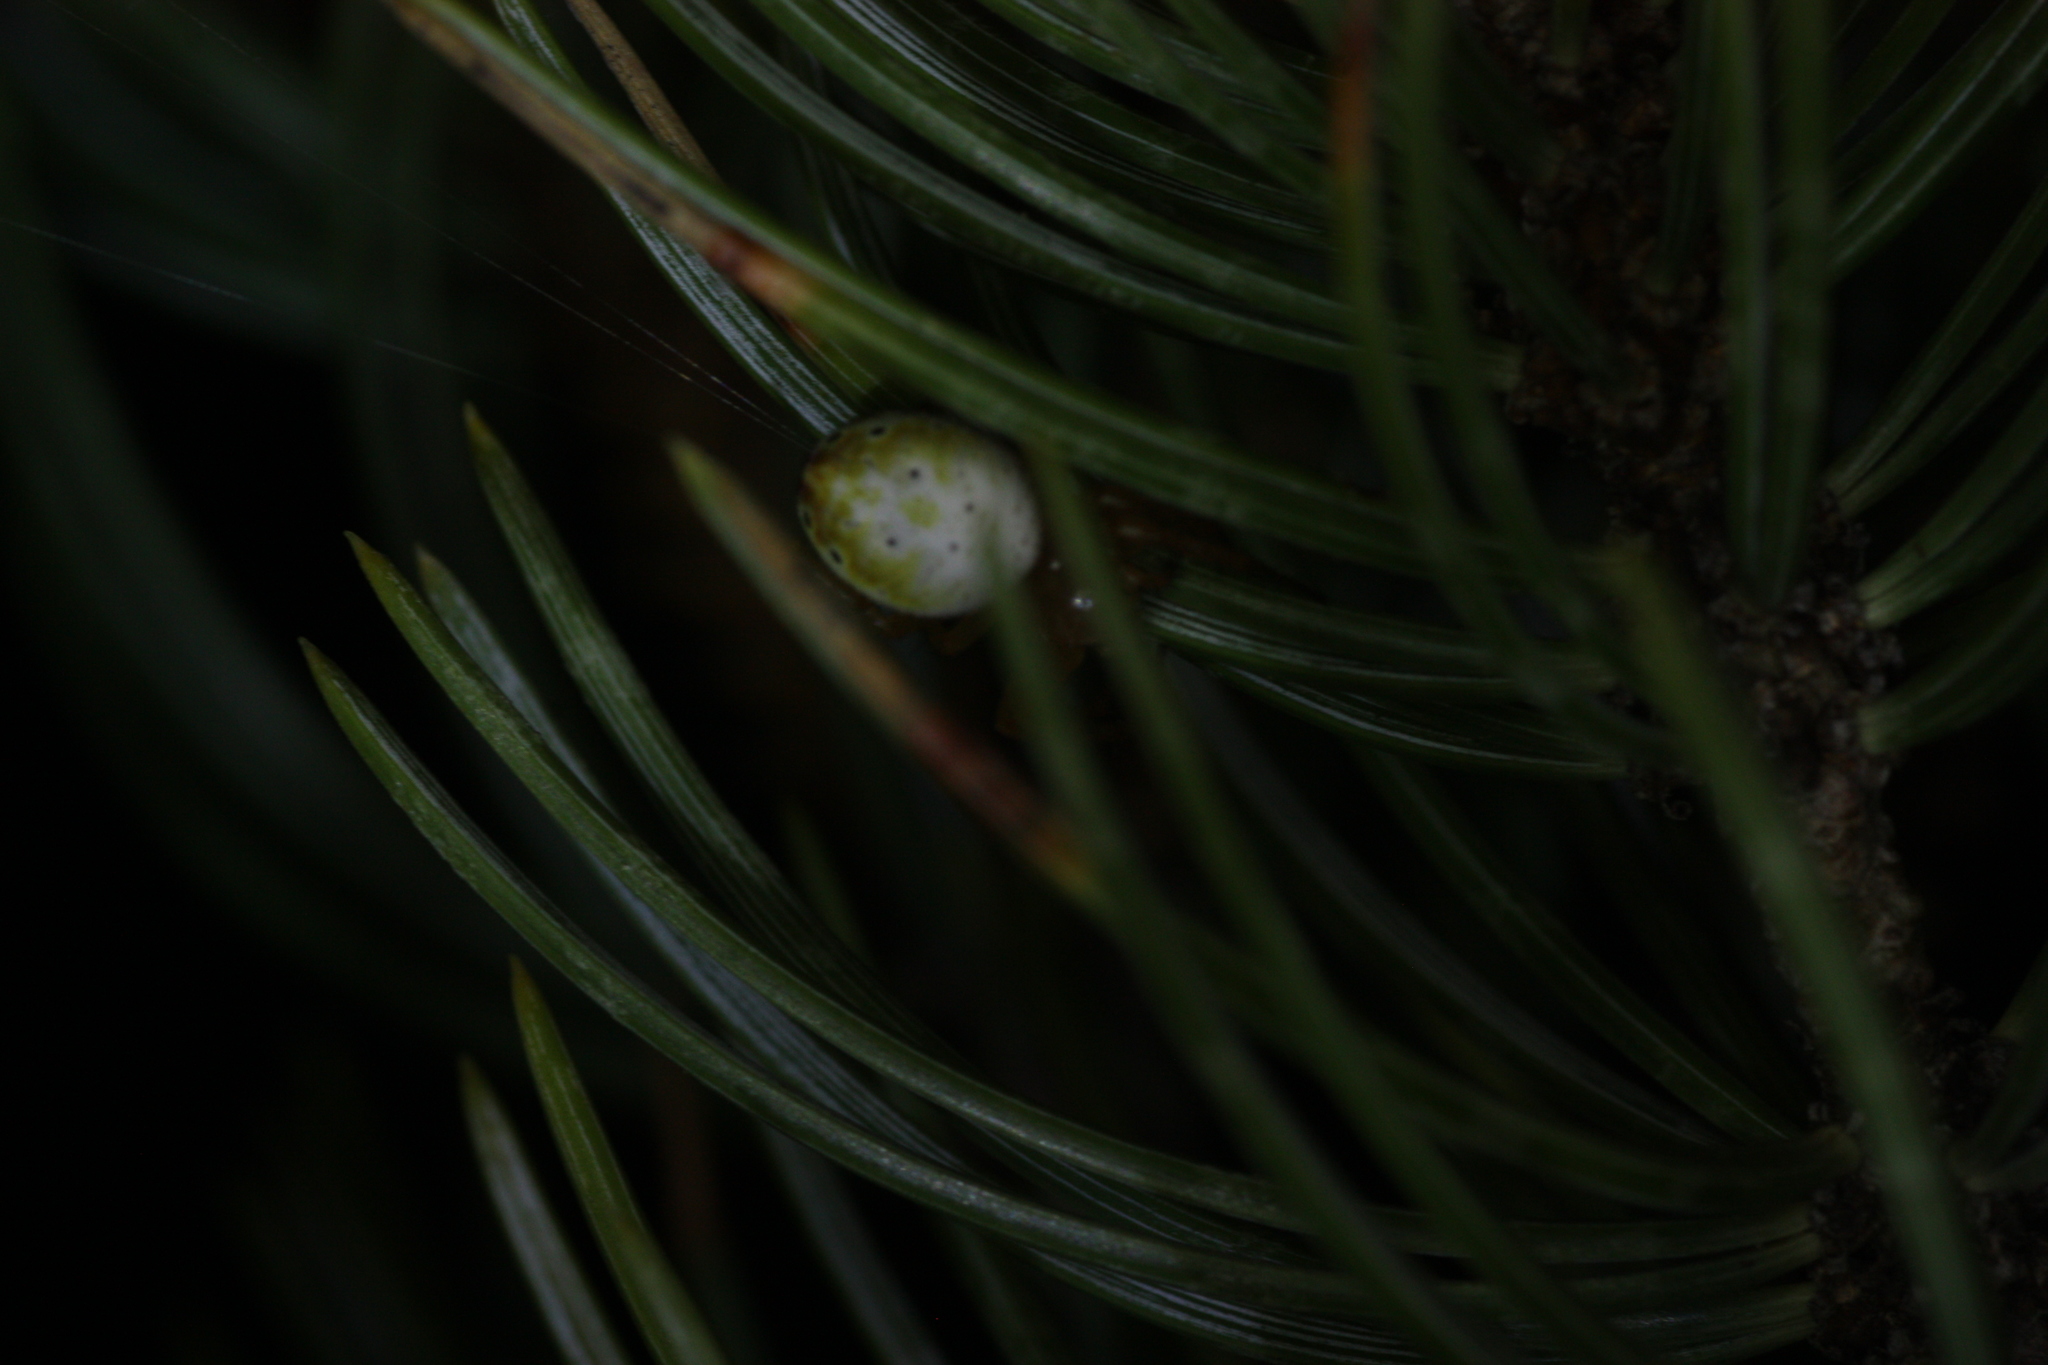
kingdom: Animalia
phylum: Arthropoda
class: Arachnida
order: Araneae
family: Araneidae
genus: Araniella
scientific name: Araniella displicata
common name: Sixspotted orb weaver
